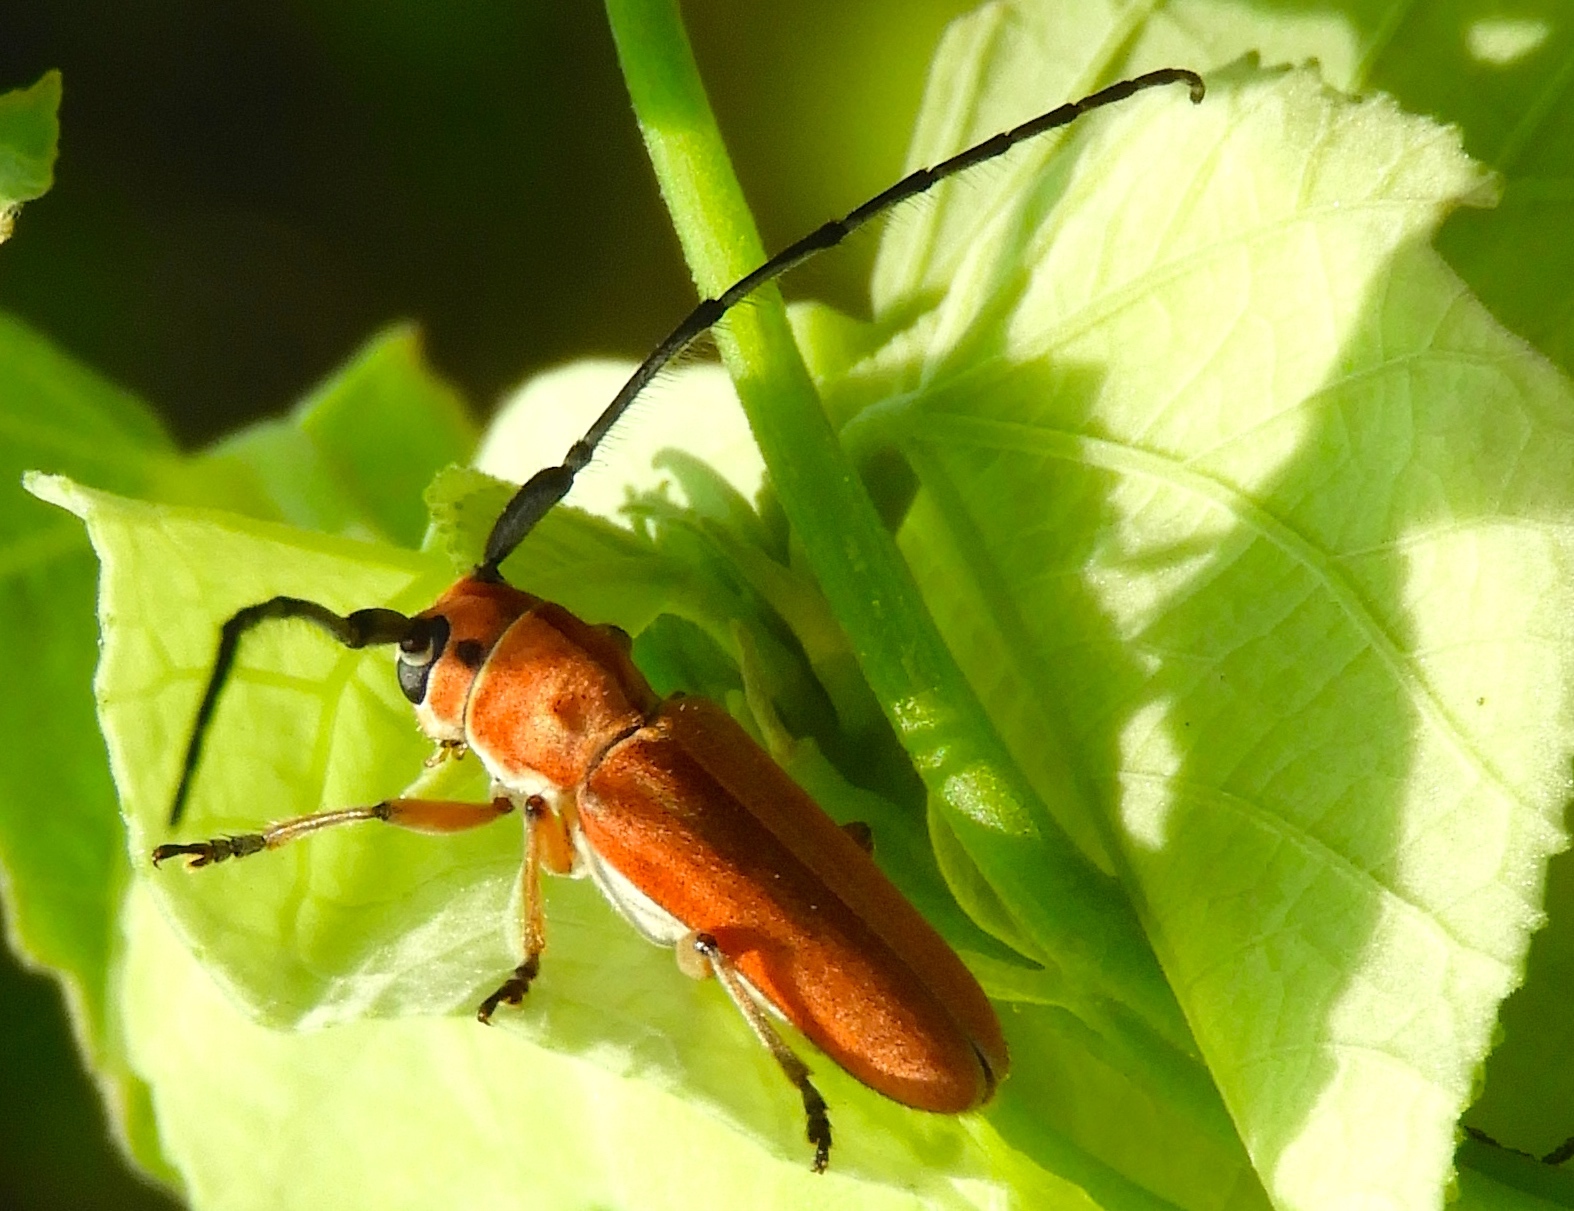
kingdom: Animalia
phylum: Arthropoda
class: Insecta
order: Coleoptera
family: Cerambycidae
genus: Essostrutha
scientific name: Essostrutha laeta
